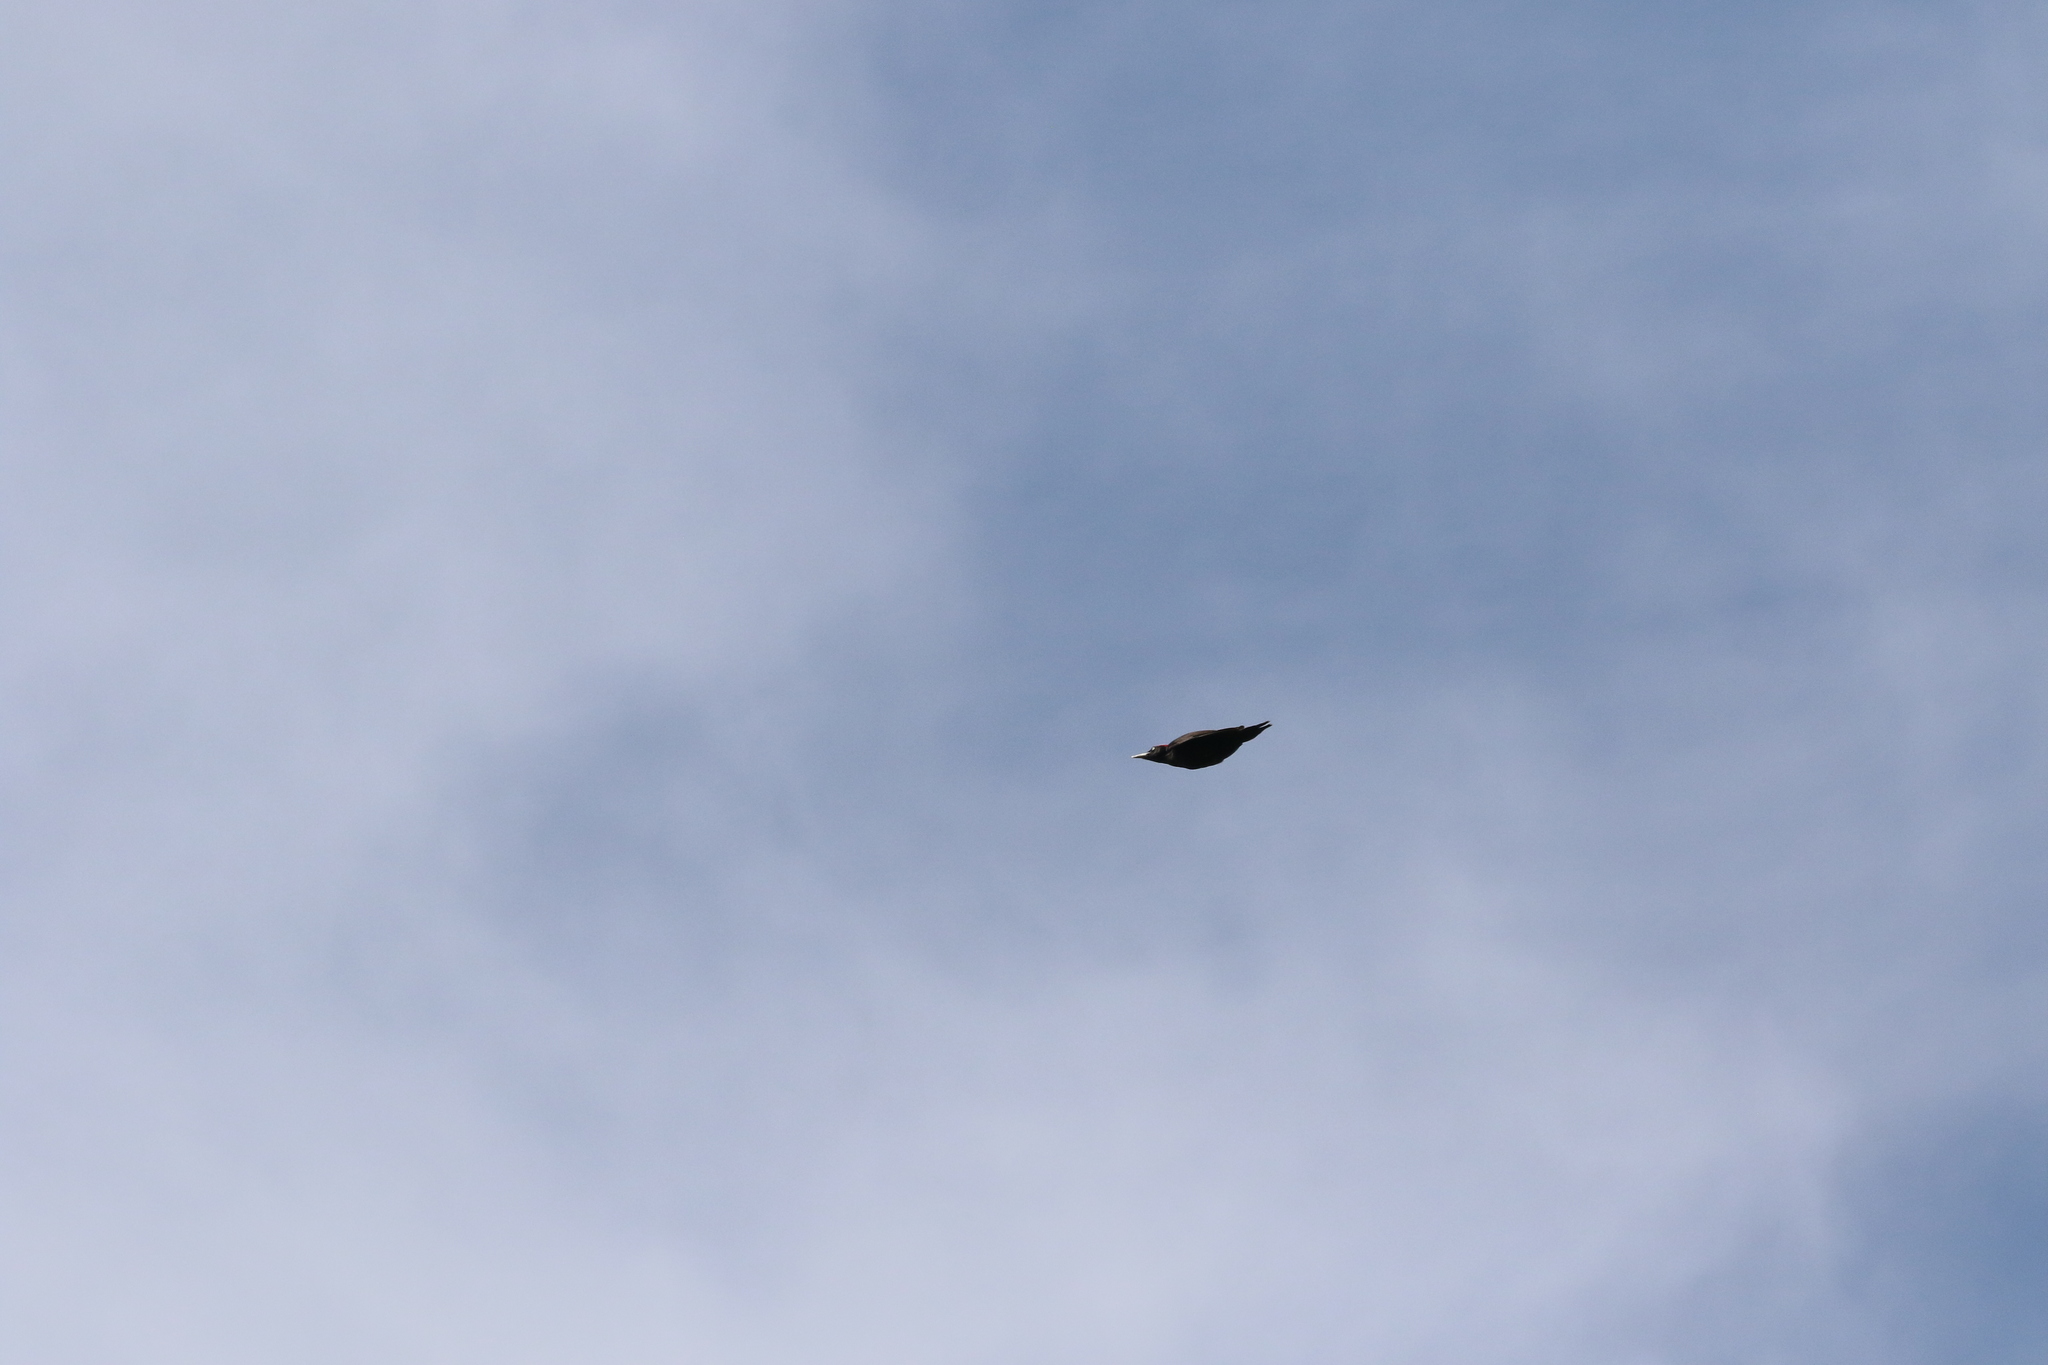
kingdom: Animalia
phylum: Chordata
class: Aves
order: Piciformes
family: Picidae
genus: Dryocopus
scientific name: Dryocopus martius
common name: Black woodpecker
